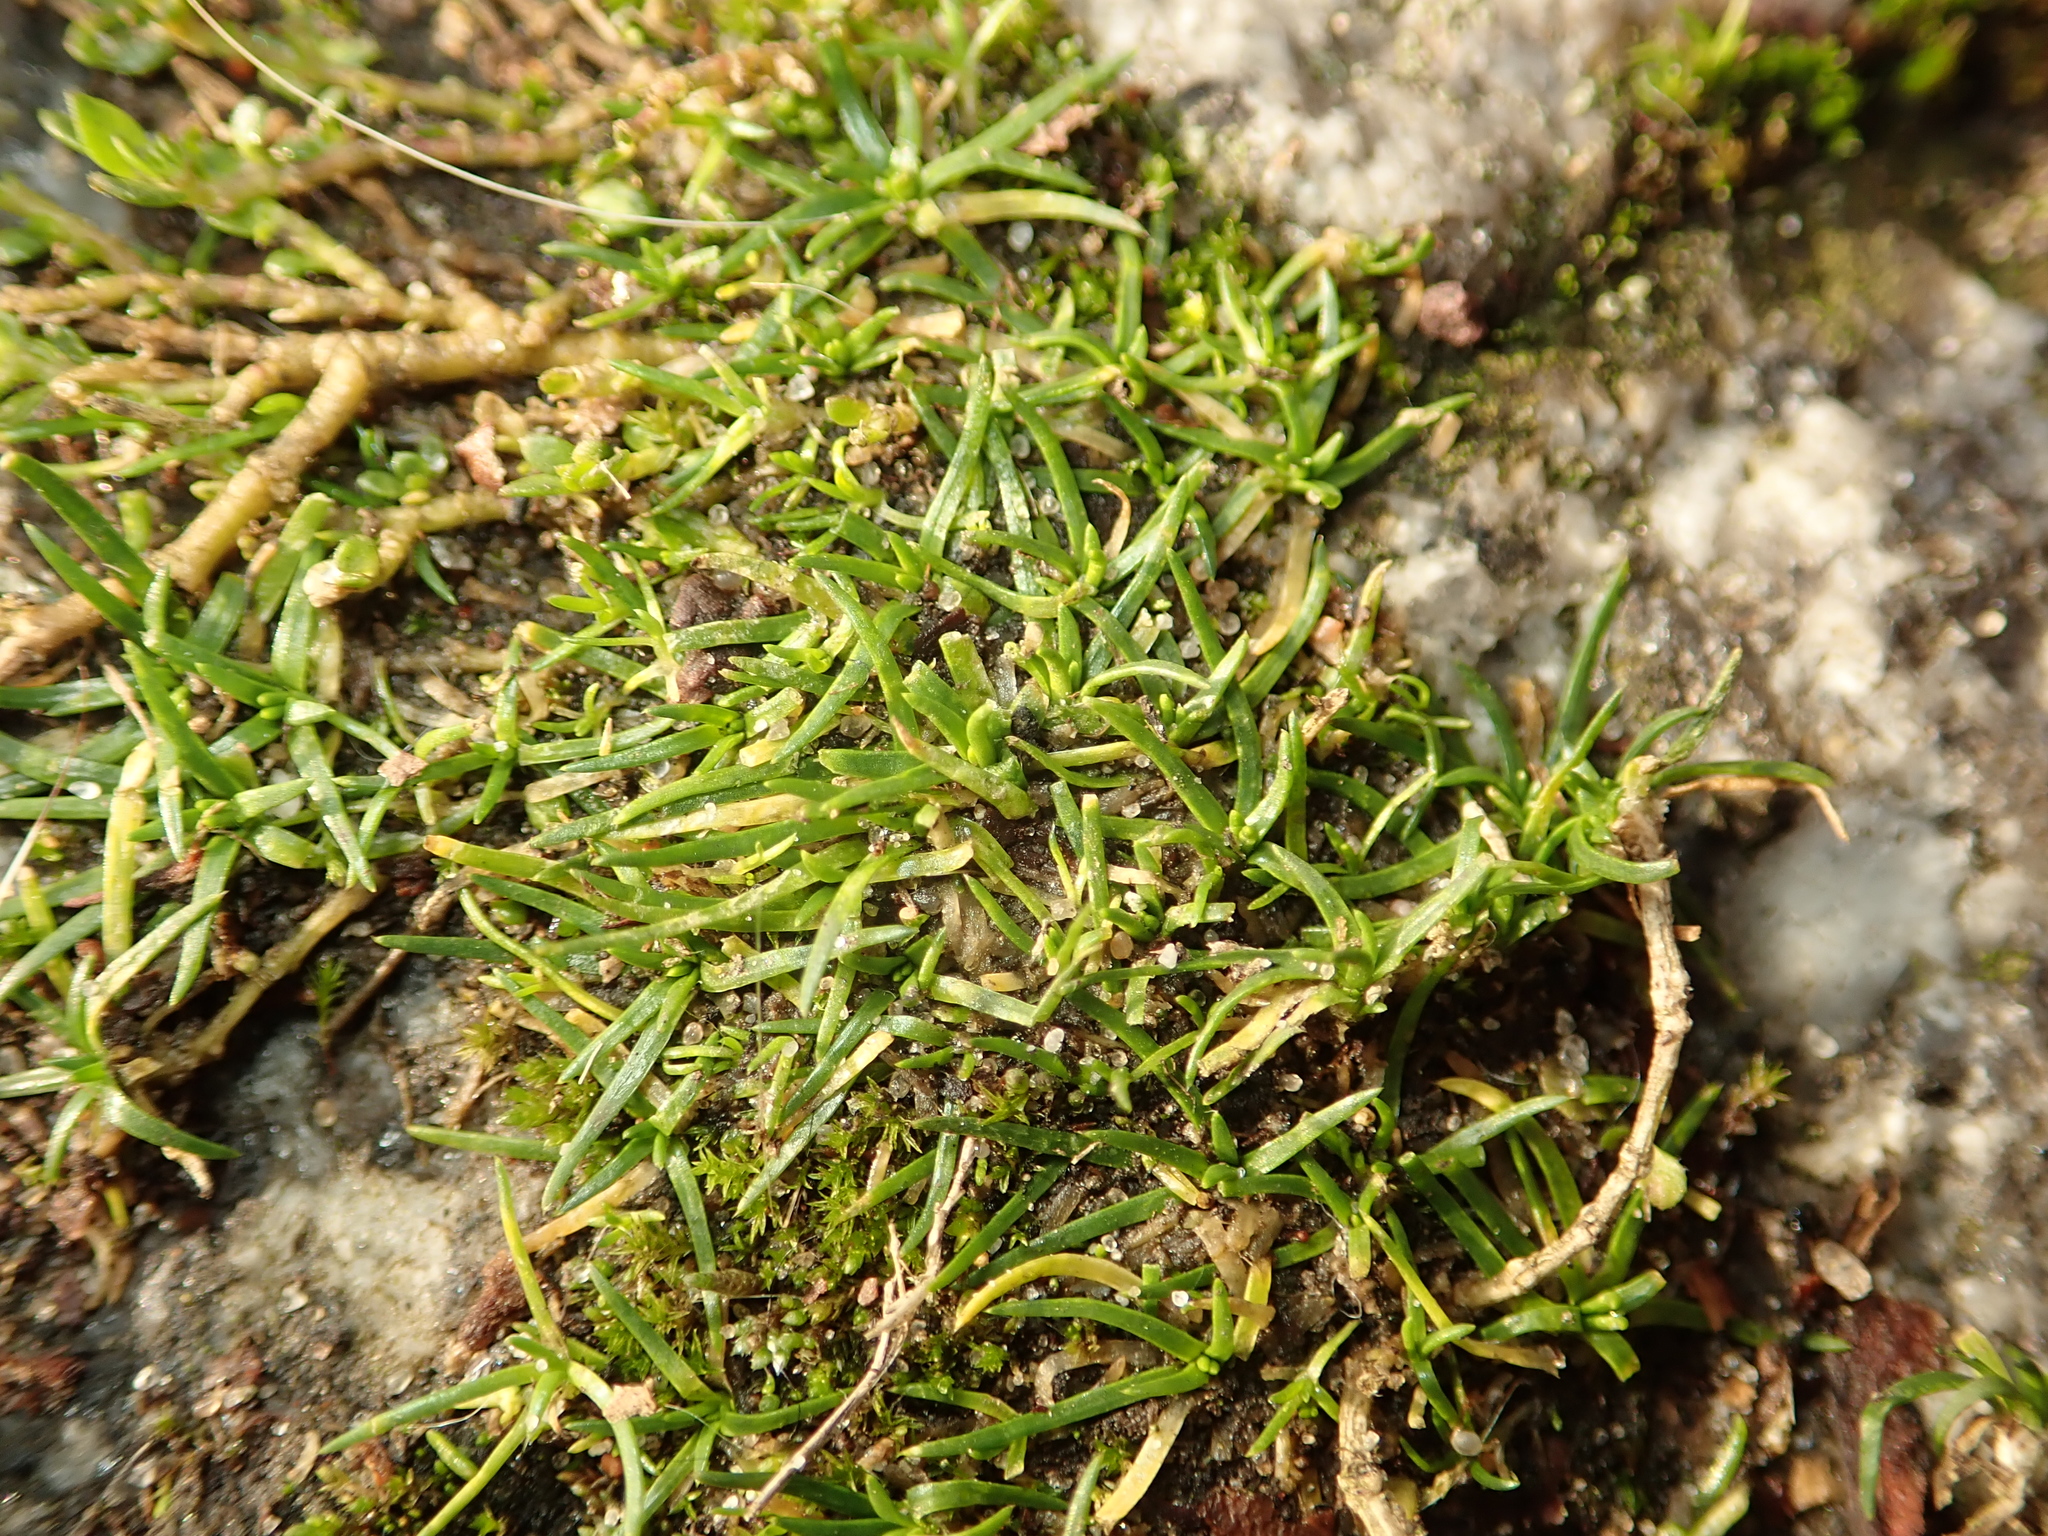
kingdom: Plantae
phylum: Tracheophyta
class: Magnoliopsida
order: Caryophyllales
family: Caryophyllaceae
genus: Sagina
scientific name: Sagina procumbens
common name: Procumbent pearlwort
